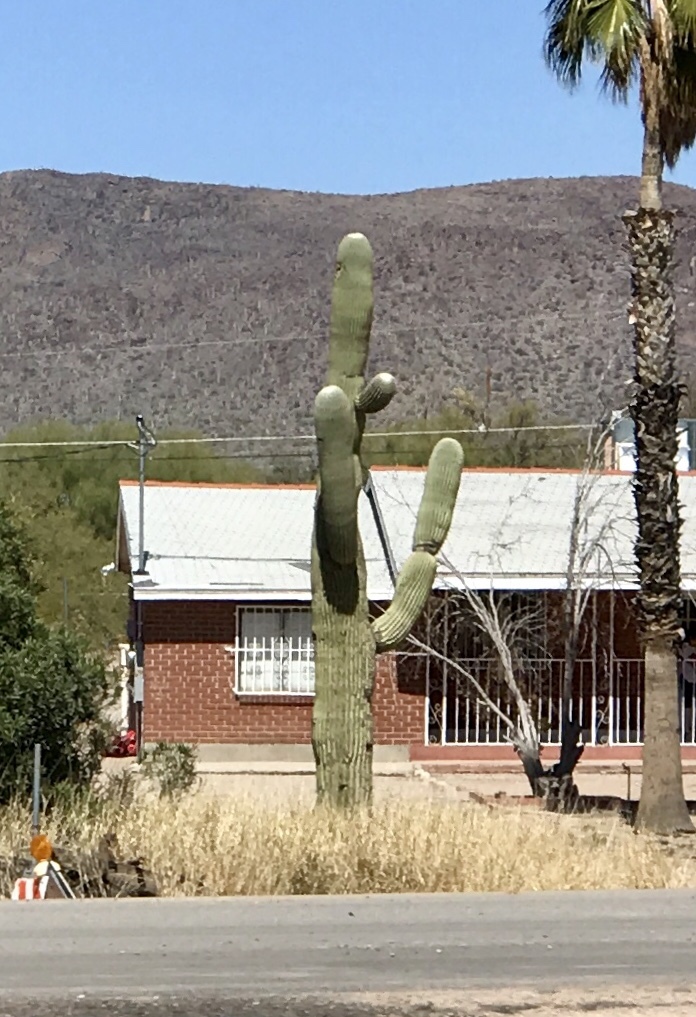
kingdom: Plantae
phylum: Tracheophyta
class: Magnoliopsida
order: Caryophyllales
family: Cactaceae
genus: Carnegiea
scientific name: Carnegiea gigantea
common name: Saguaro
